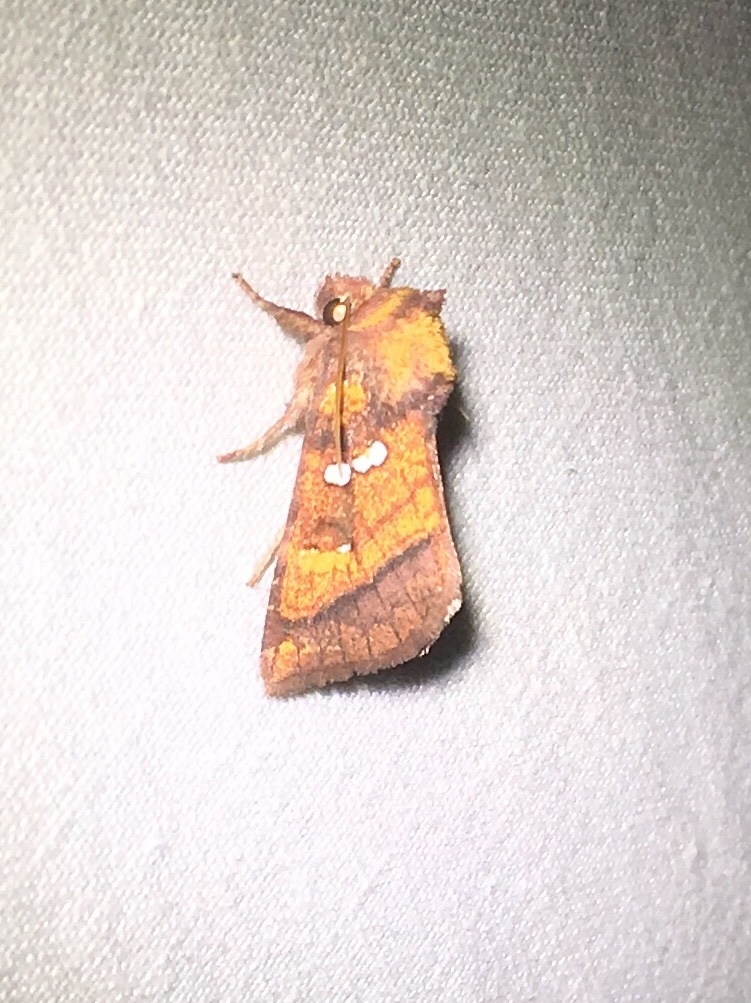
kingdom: Animalia
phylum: Arthropoda
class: Insecta
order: Lepidoptera
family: Noctuidae
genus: Papaipema
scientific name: Papaipema pterisii
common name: Bracken borer moth
